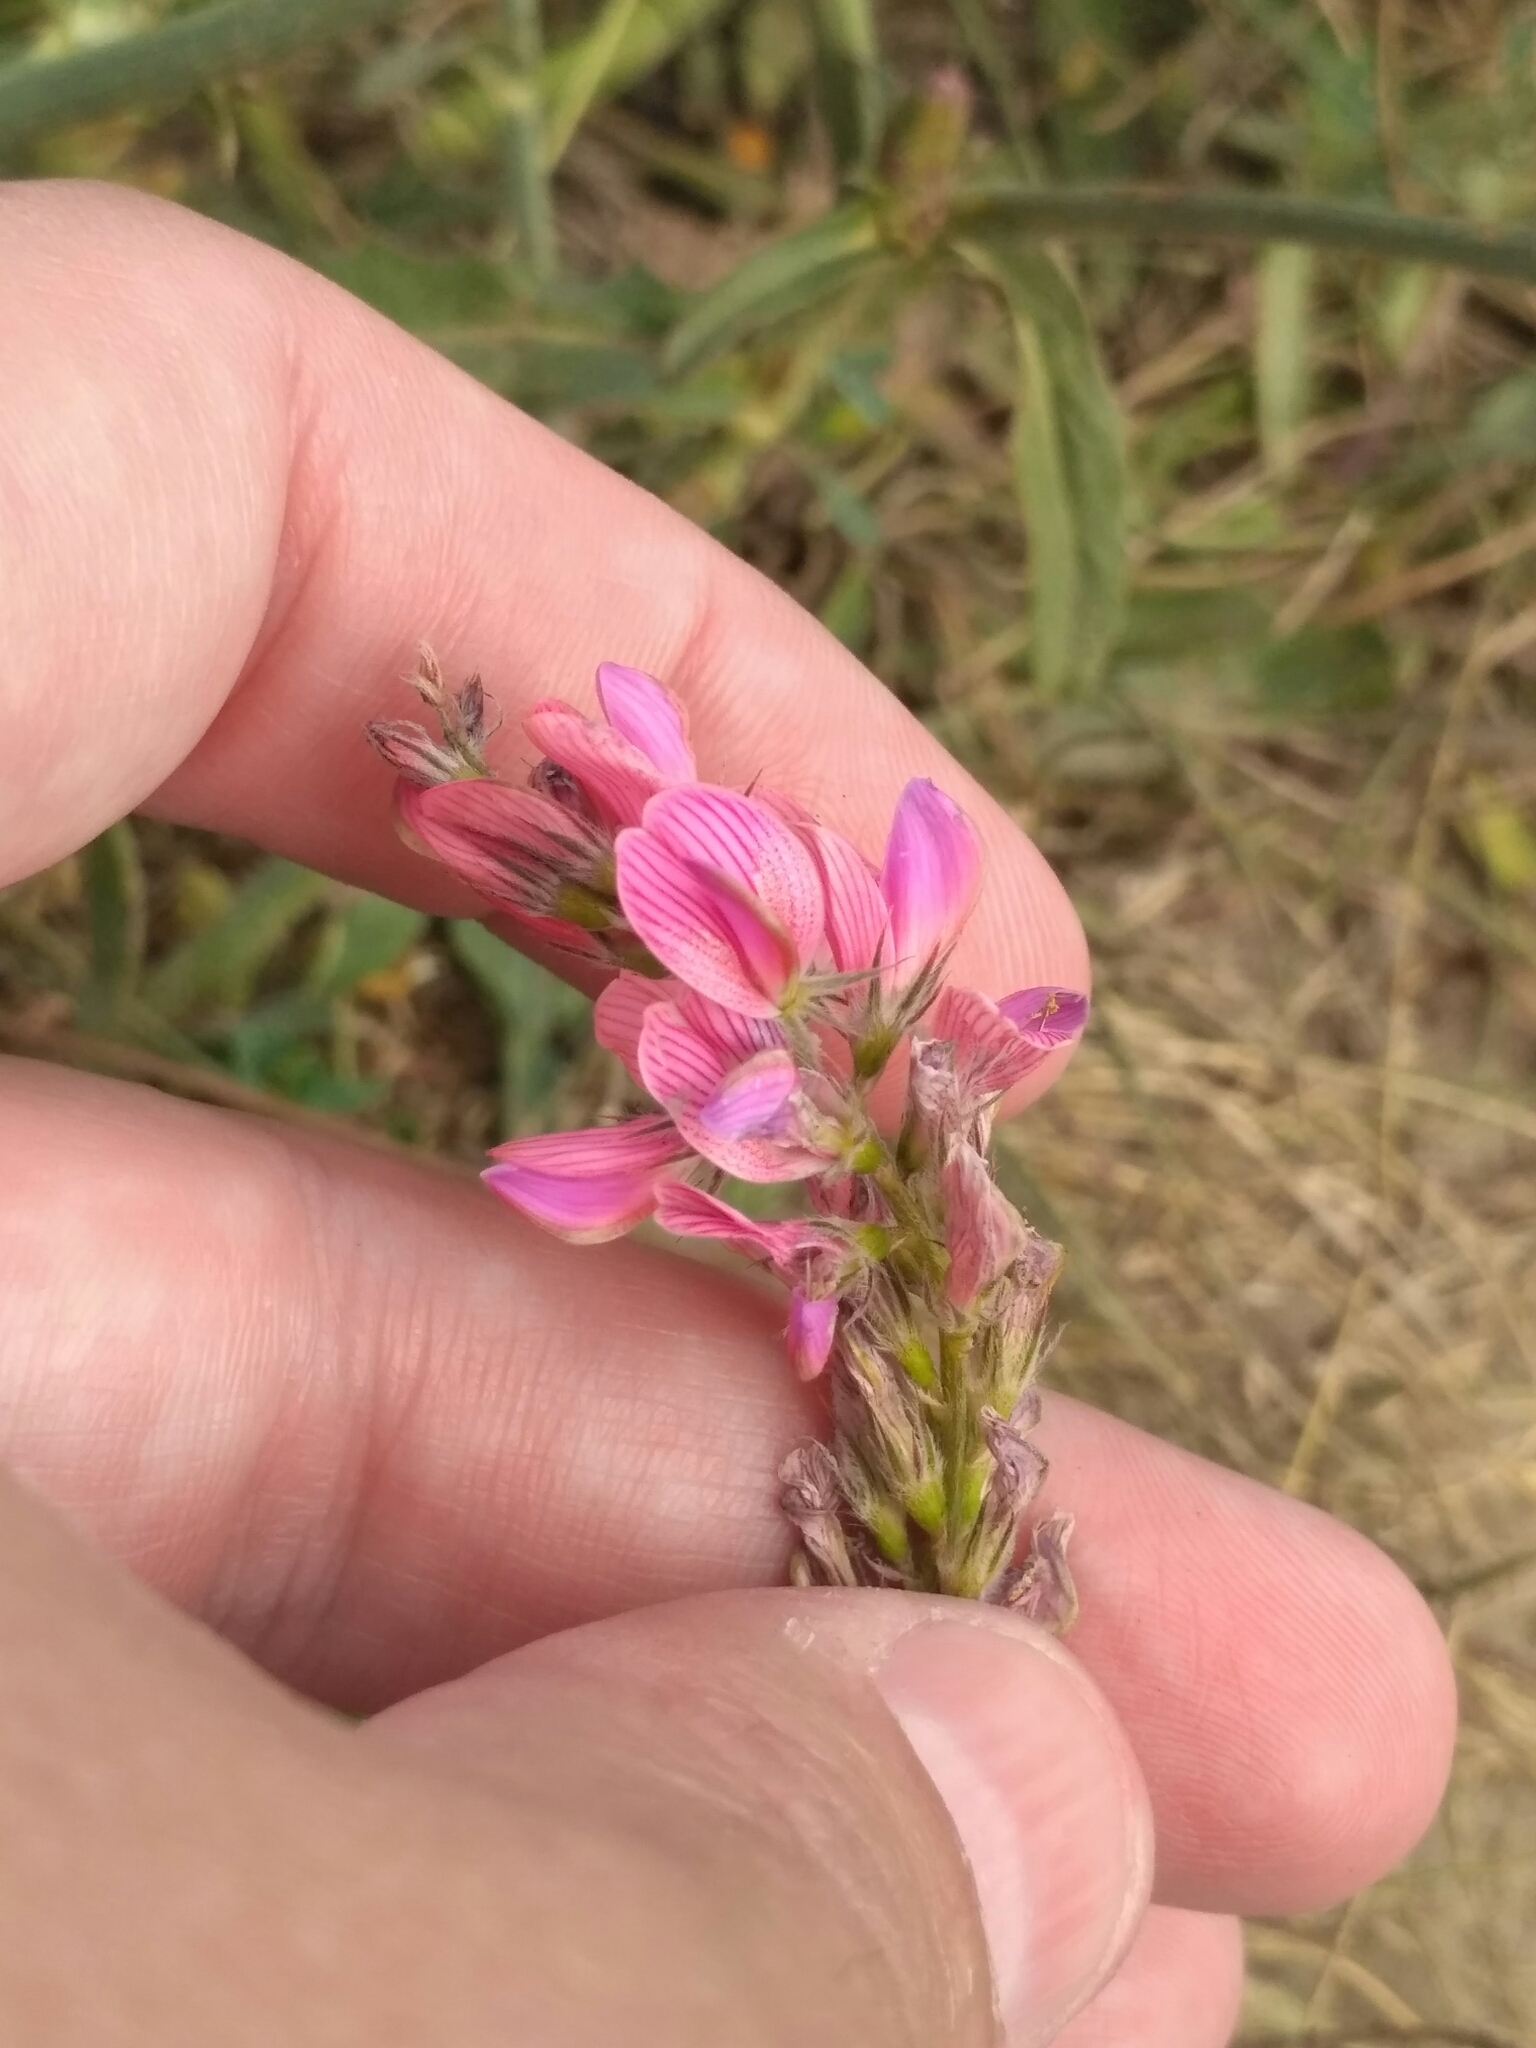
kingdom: Plantae
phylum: Tracheophyta
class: Magnoliopsida
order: Fabales
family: Fabaceae
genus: Onobrychis
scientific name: Onobrychis viciifolia
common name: Sainfoin
